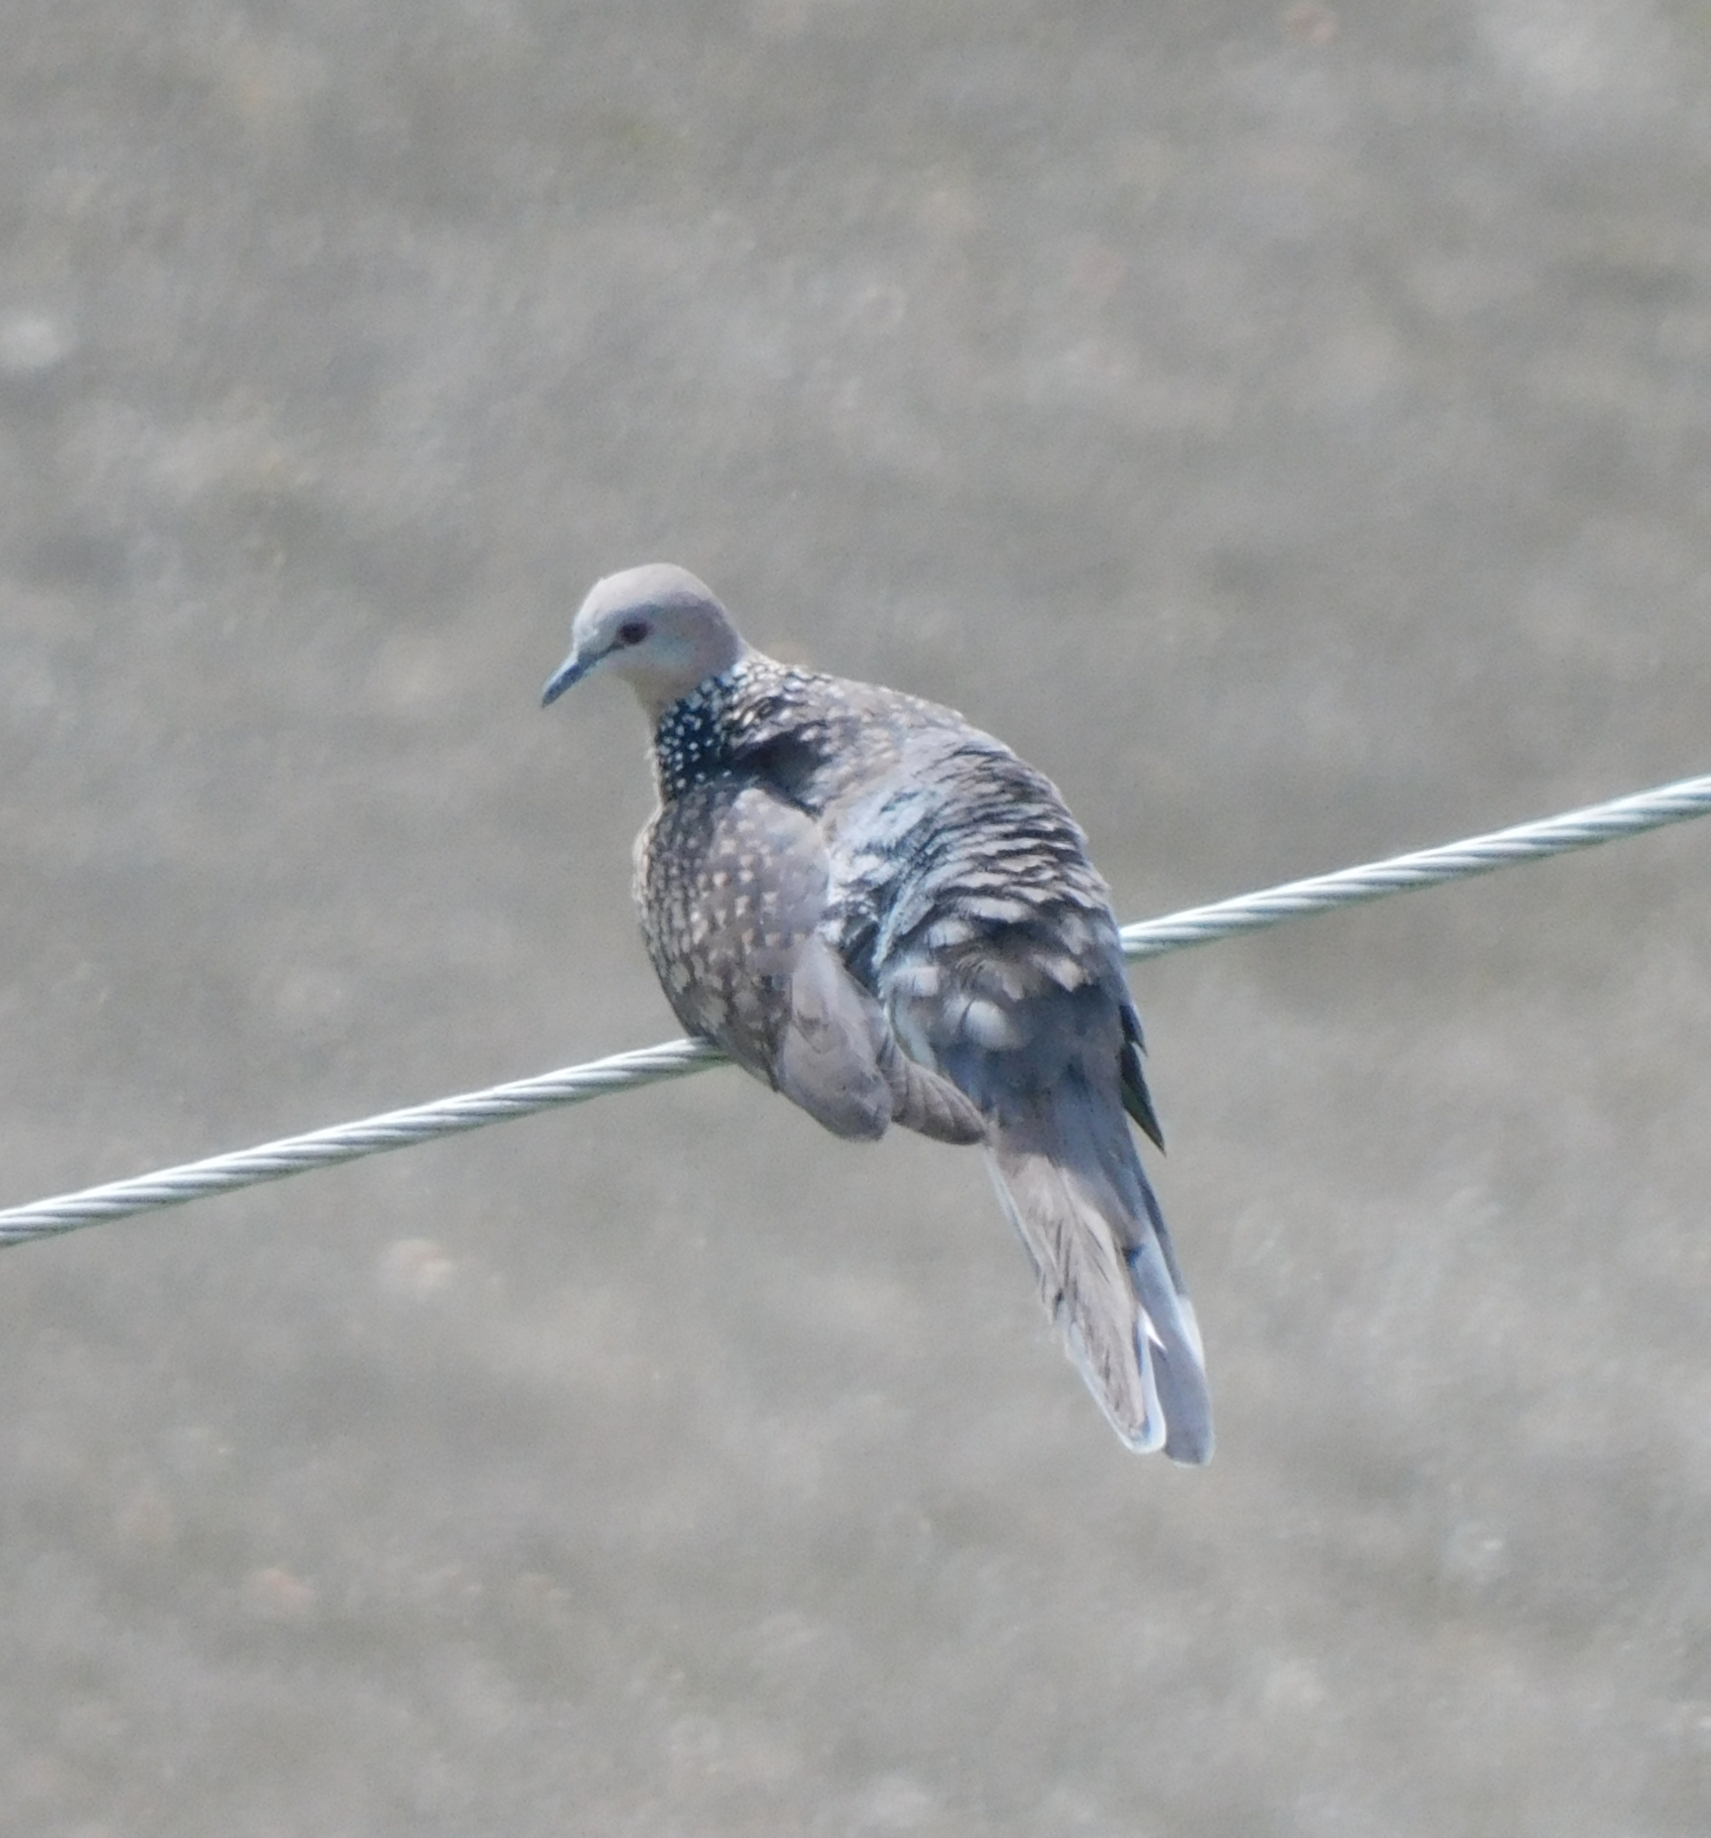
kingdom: Animalia
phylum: Chordata
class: Aves
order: Columbiformes
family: Columbidae
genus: Spilopelia
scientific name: Spilopelia chinensis
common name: Spotted dove
